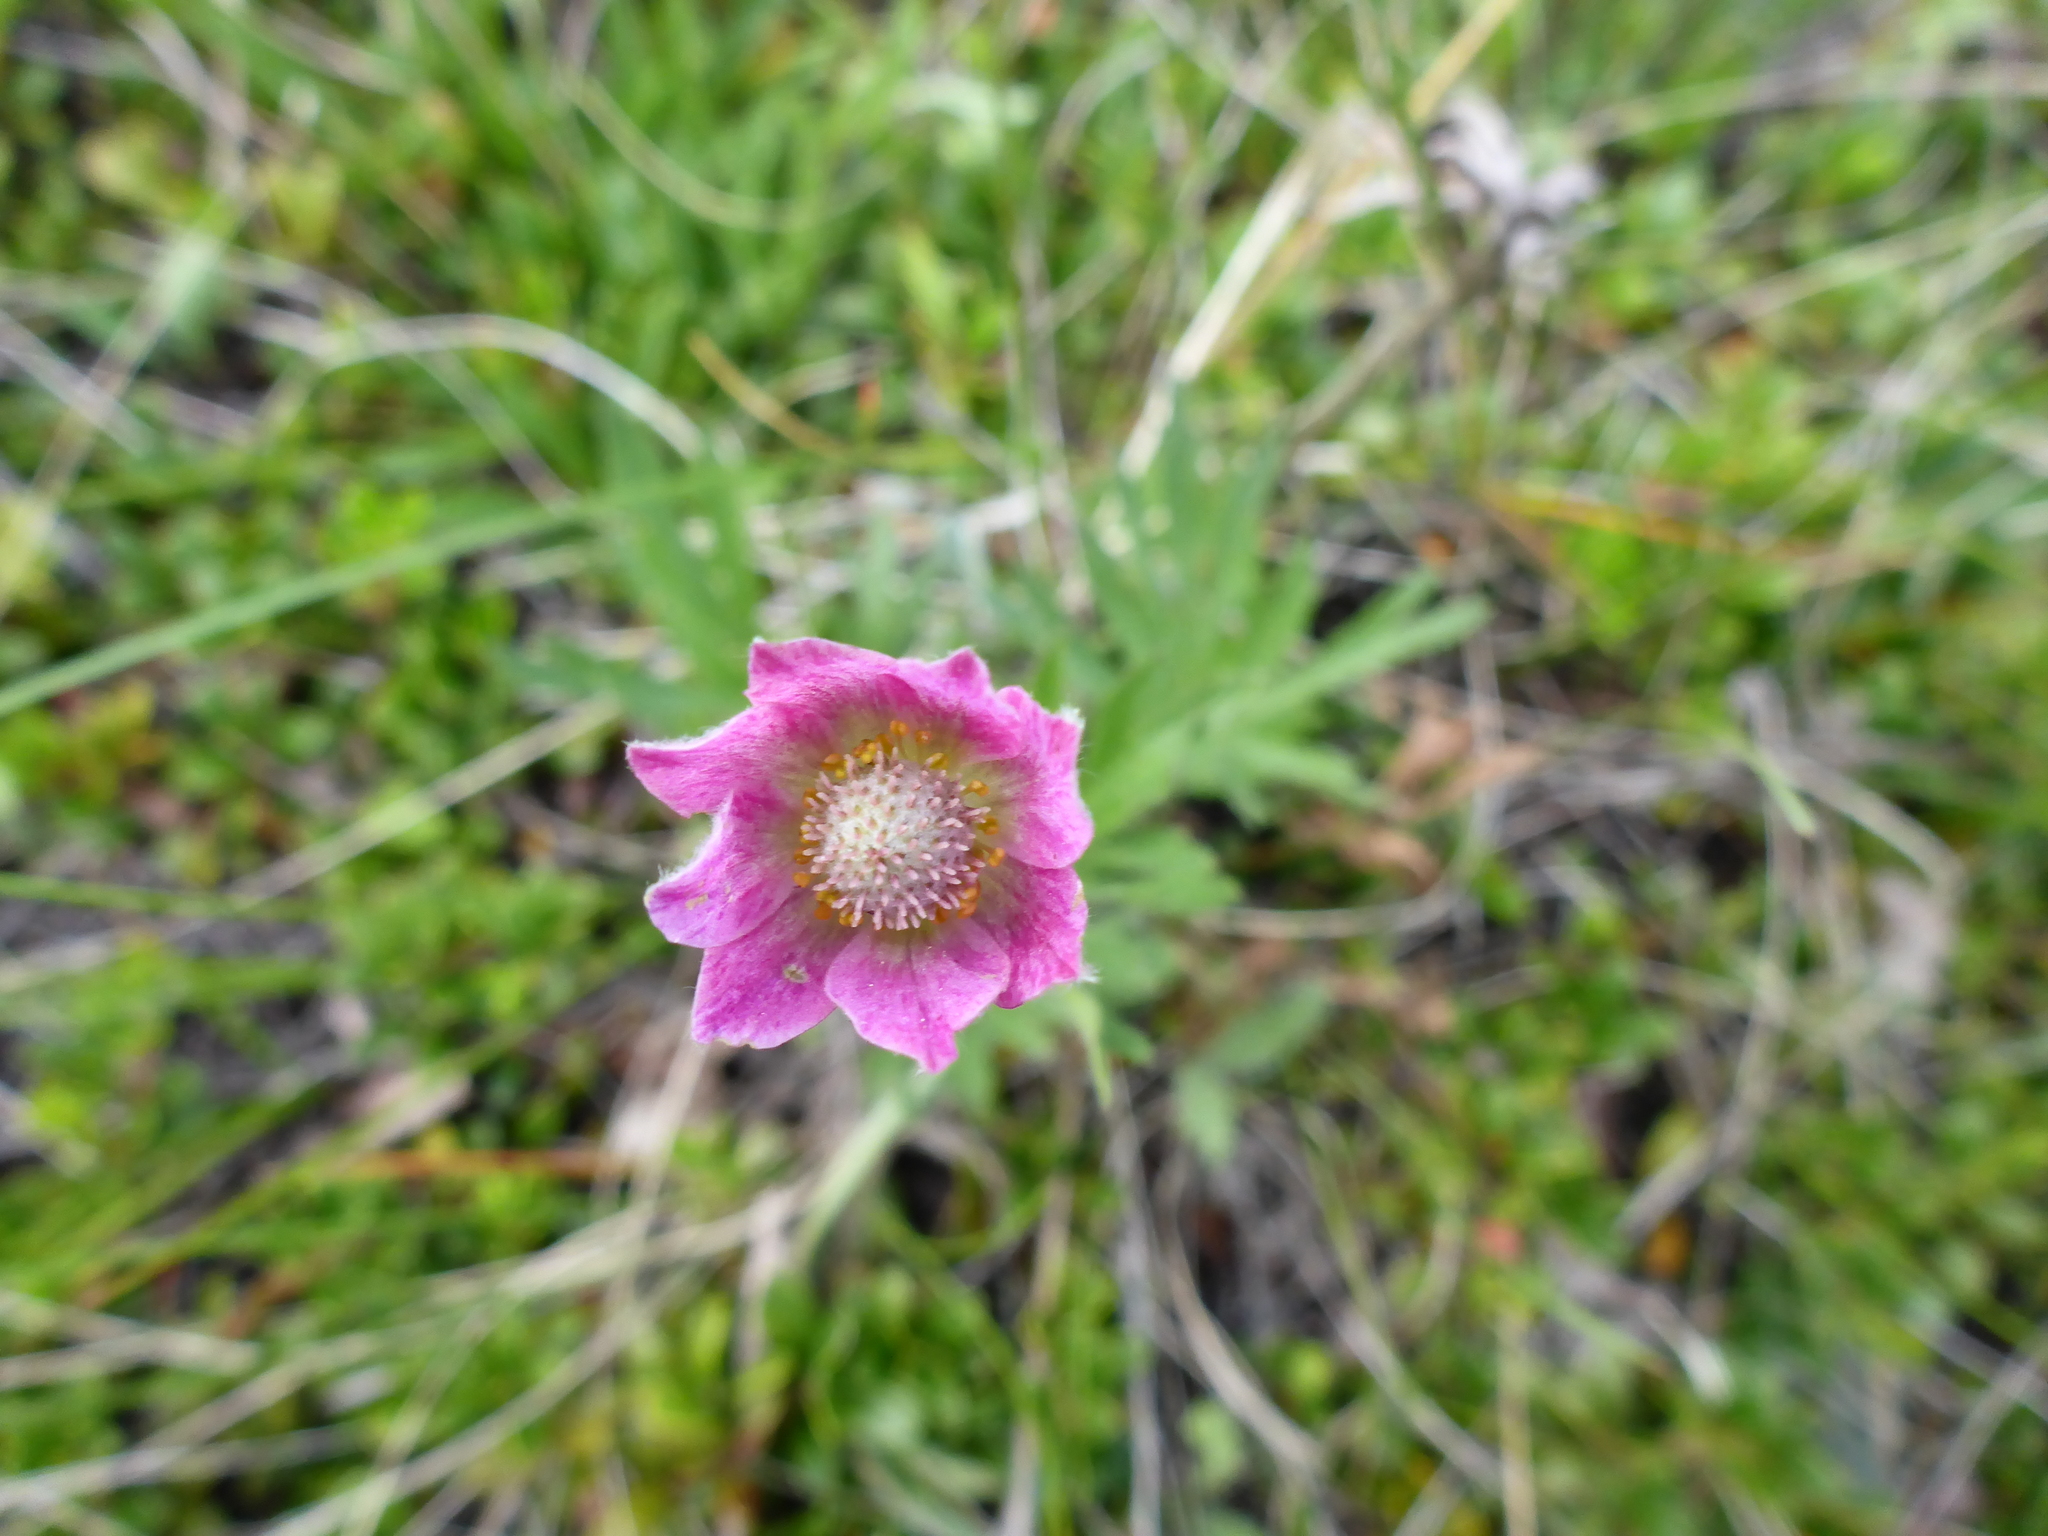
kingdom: Plantae
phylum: Tracheophyta
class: Magnoliopsida
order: Ranunculales
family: Ranunculaceae
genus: Anemone
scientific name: Anemone multifida
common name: Bird's-foot anemone
